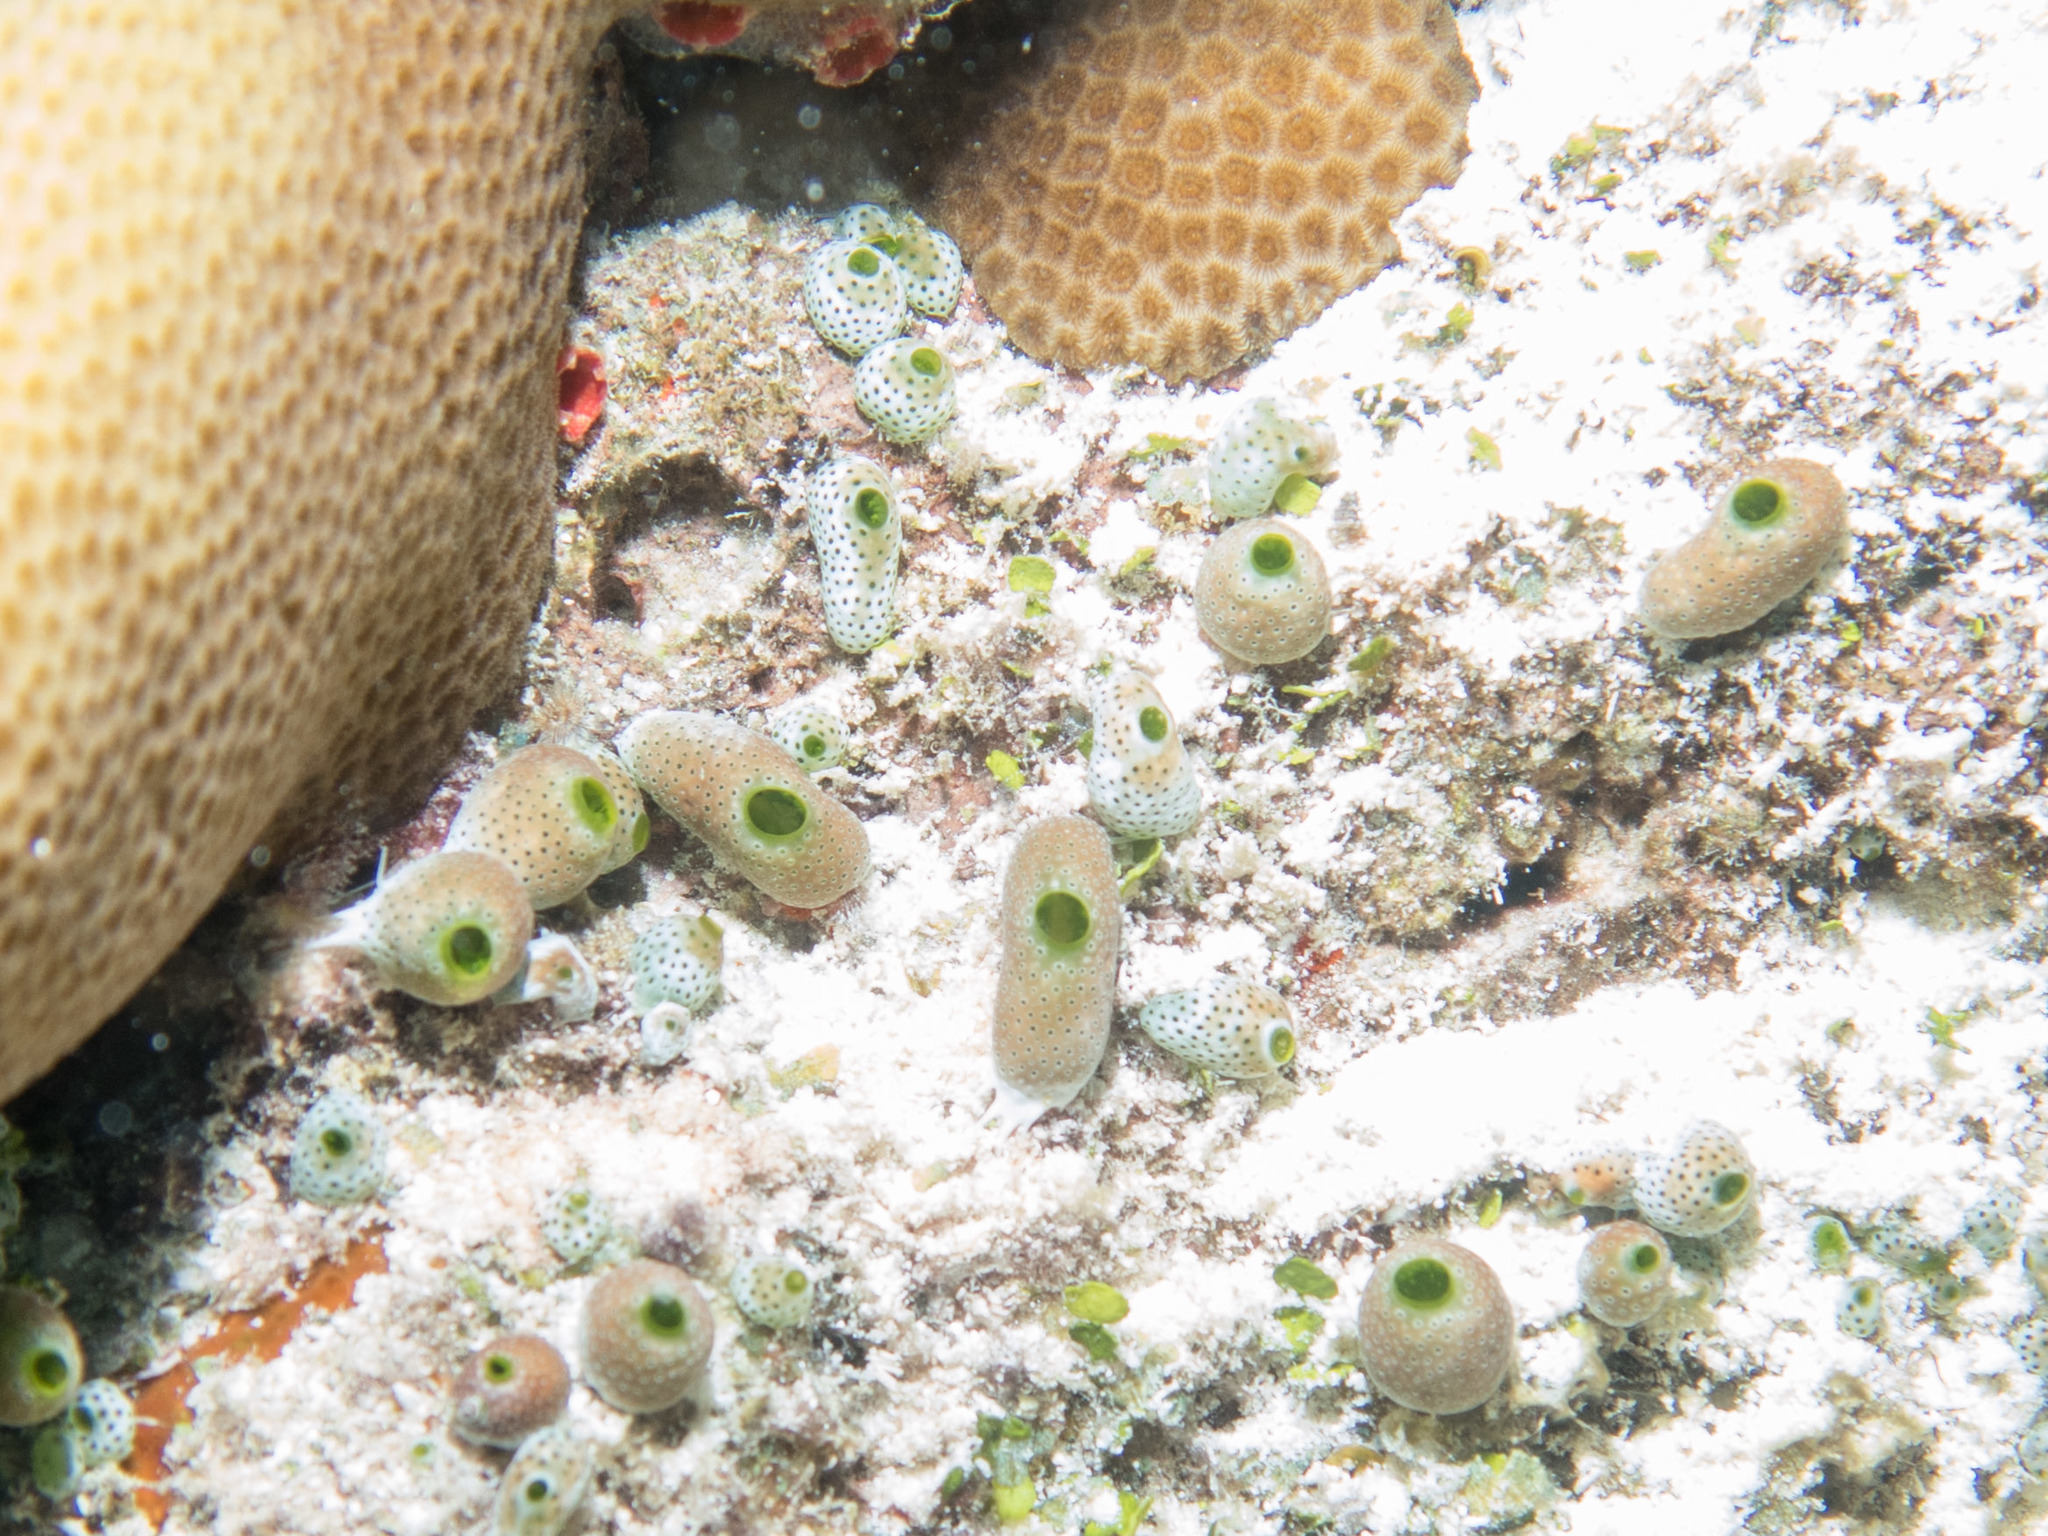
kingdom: Animalia
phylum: Chordata
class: Ascidiacea
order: Aplousobranchia
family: Didemnidae
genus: Didemnum
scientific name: Didemnum molle
